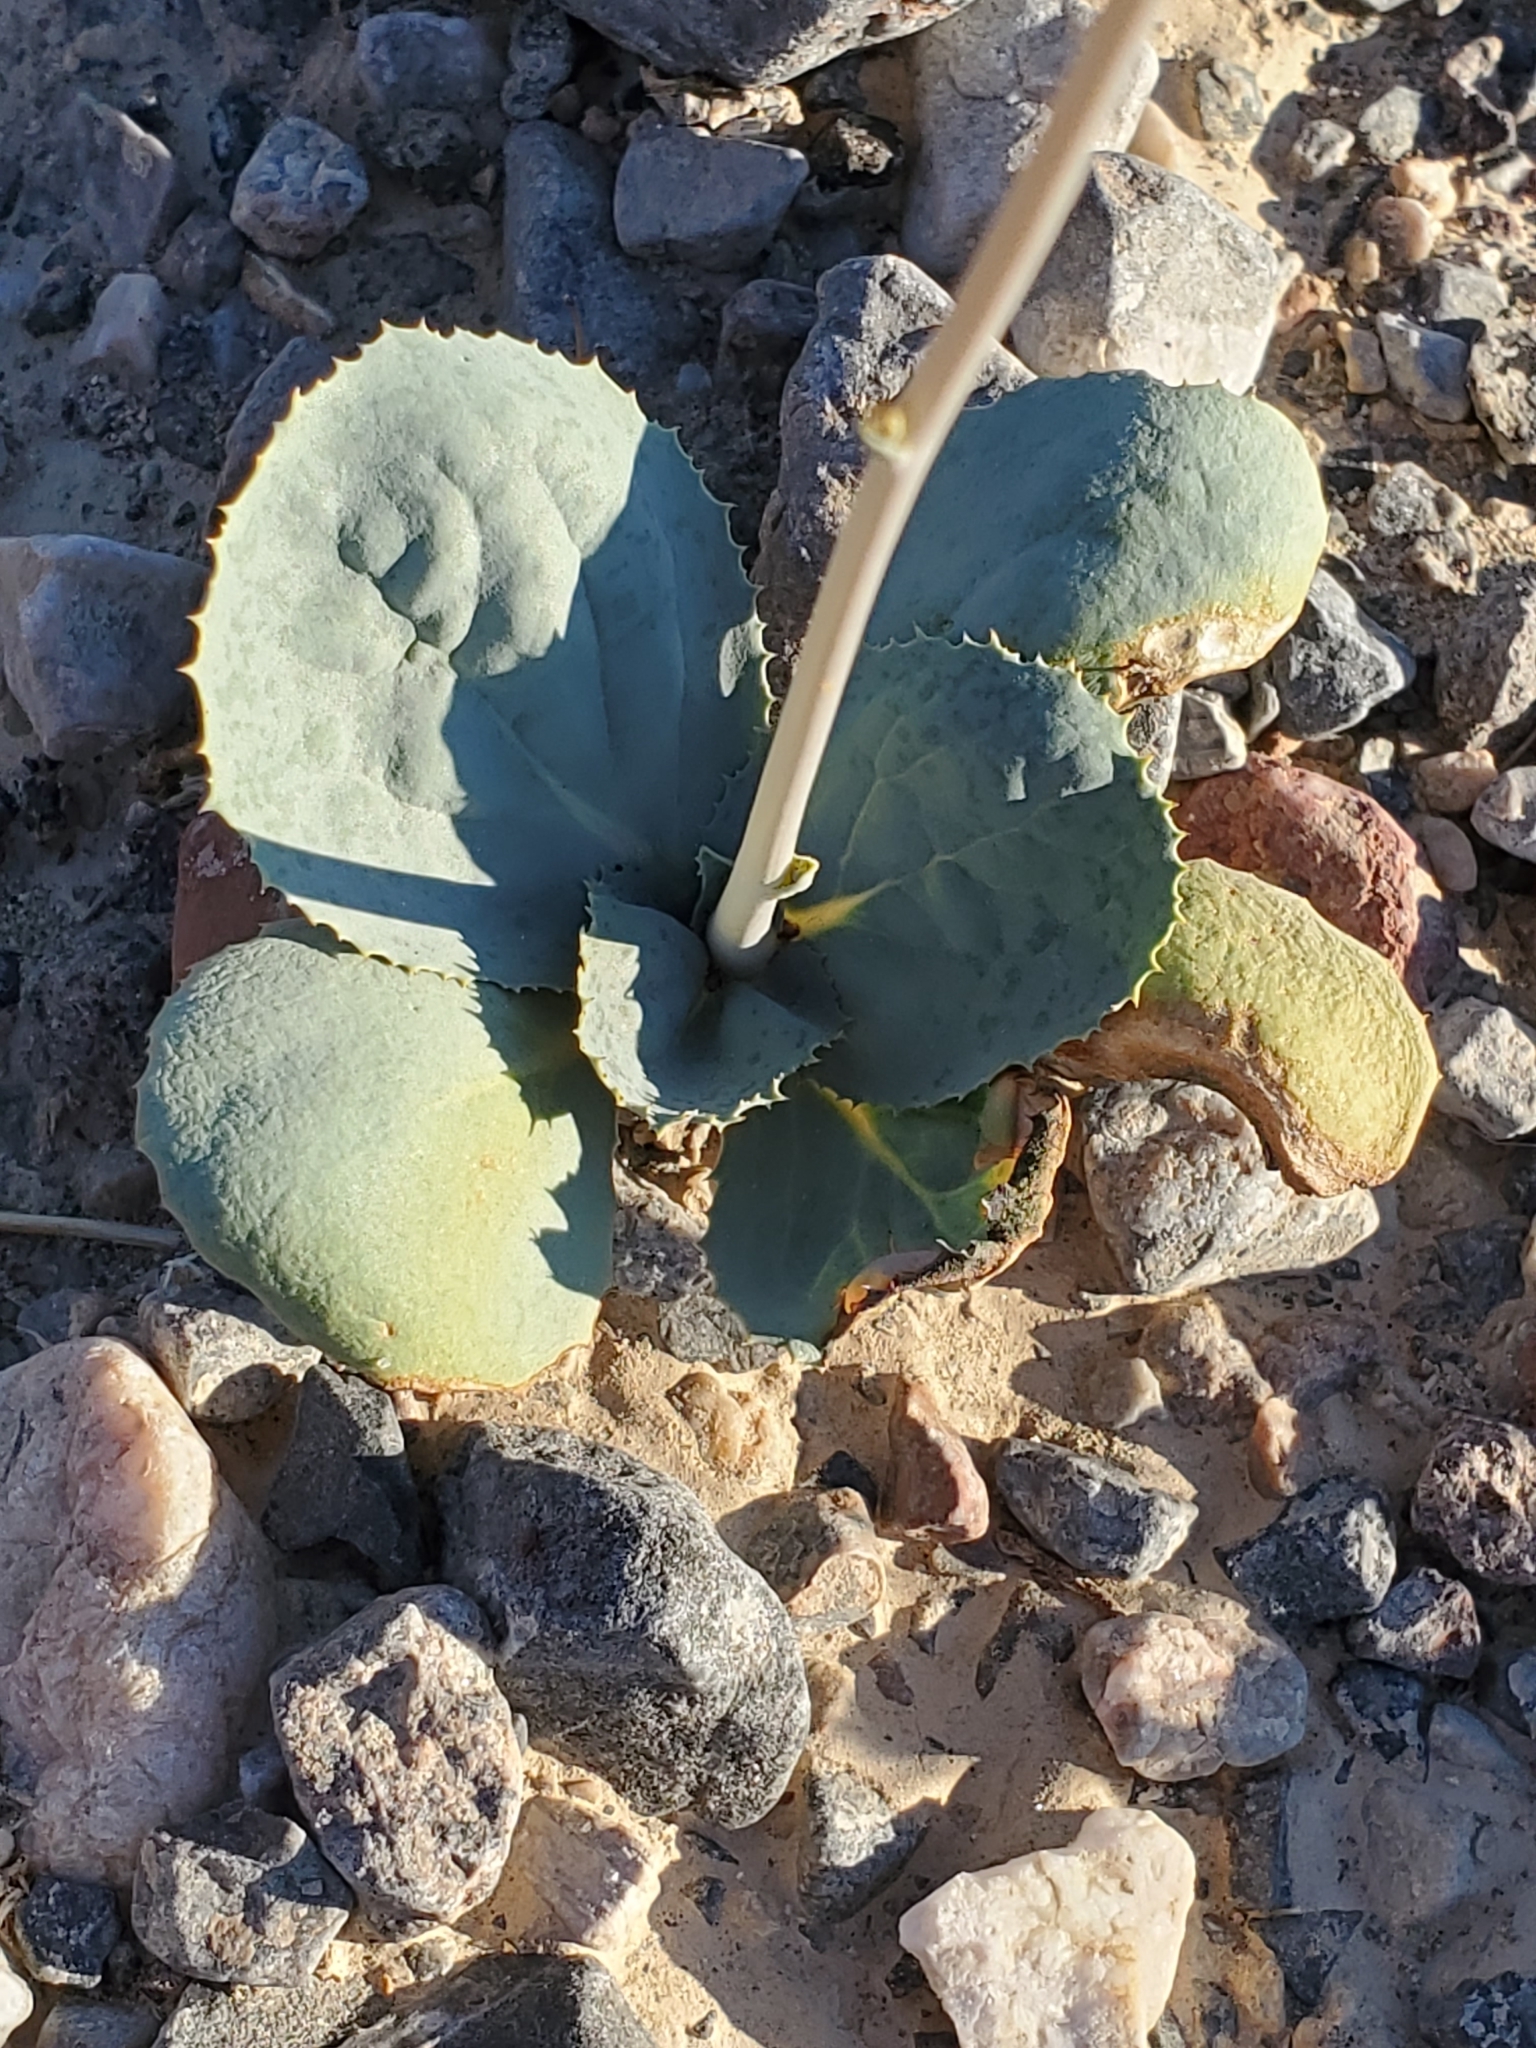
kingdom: Plantae
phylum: Tracheophyta
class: Magnoliopsida
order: Asterales
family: Asteraceae
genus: Atrichoseris
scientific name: Atrichoseris platyphylla
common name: Tobaccoweed
